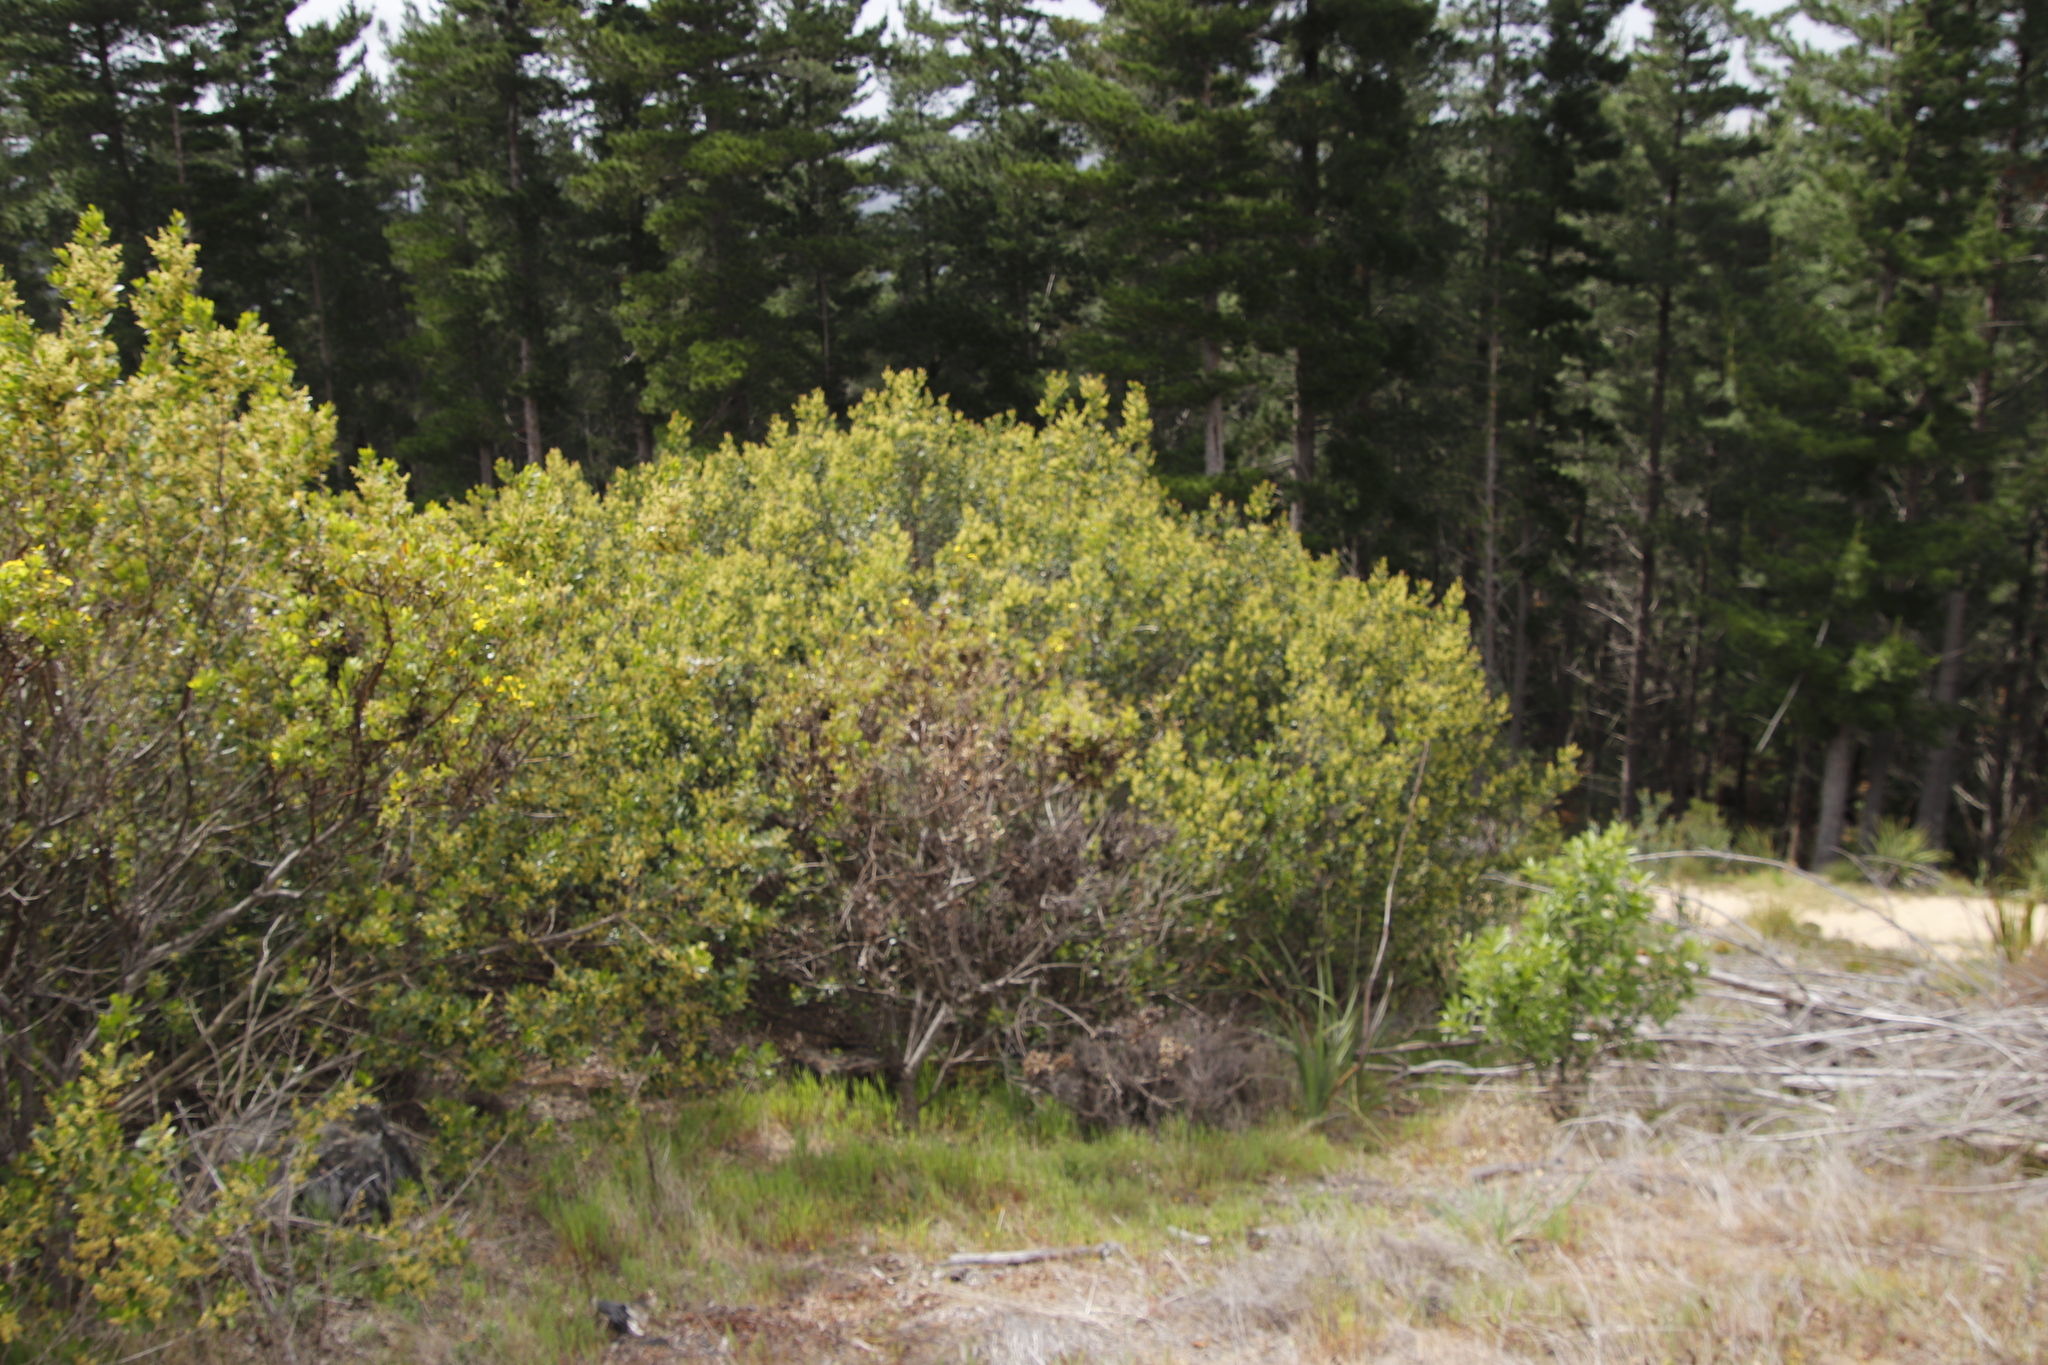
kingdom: Plantae
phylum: Tracheophyta
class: Magnoliopsida
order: Sapindales
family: Anacardiaceae
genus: Searsia
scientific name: Searsia lucida
